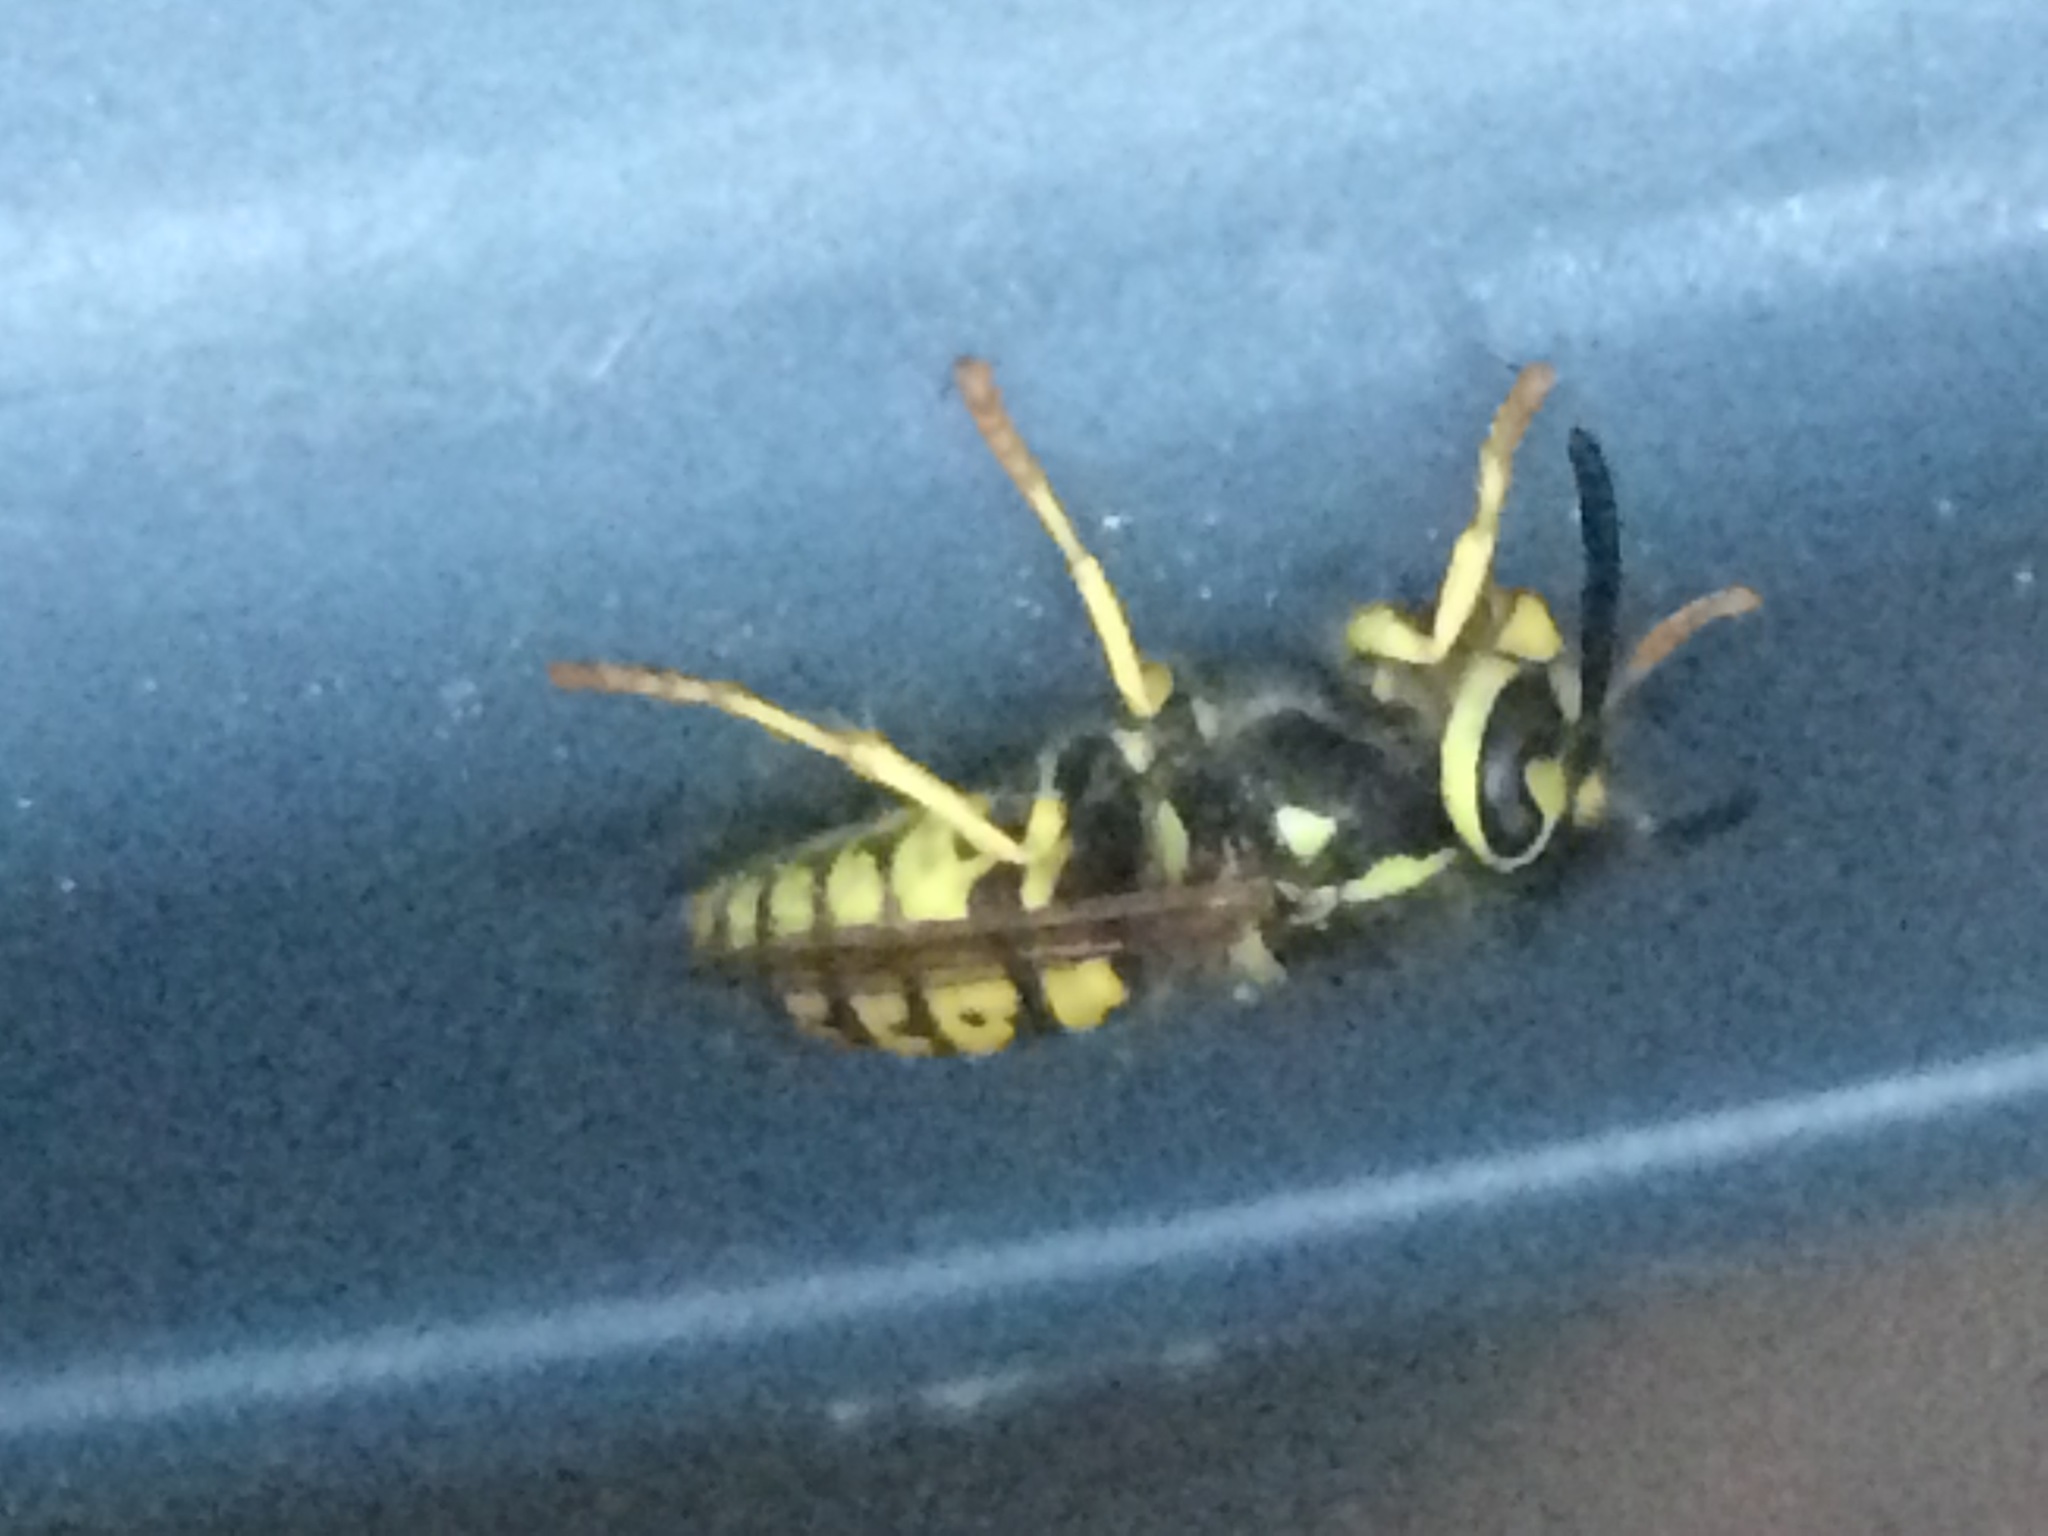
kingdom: Animalia
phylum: Arthropoda
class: Insecta
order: Hymenoptera
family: Vespidae
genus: Vespula
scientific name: Vespula pensylvanica
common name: Western yellowjacket
